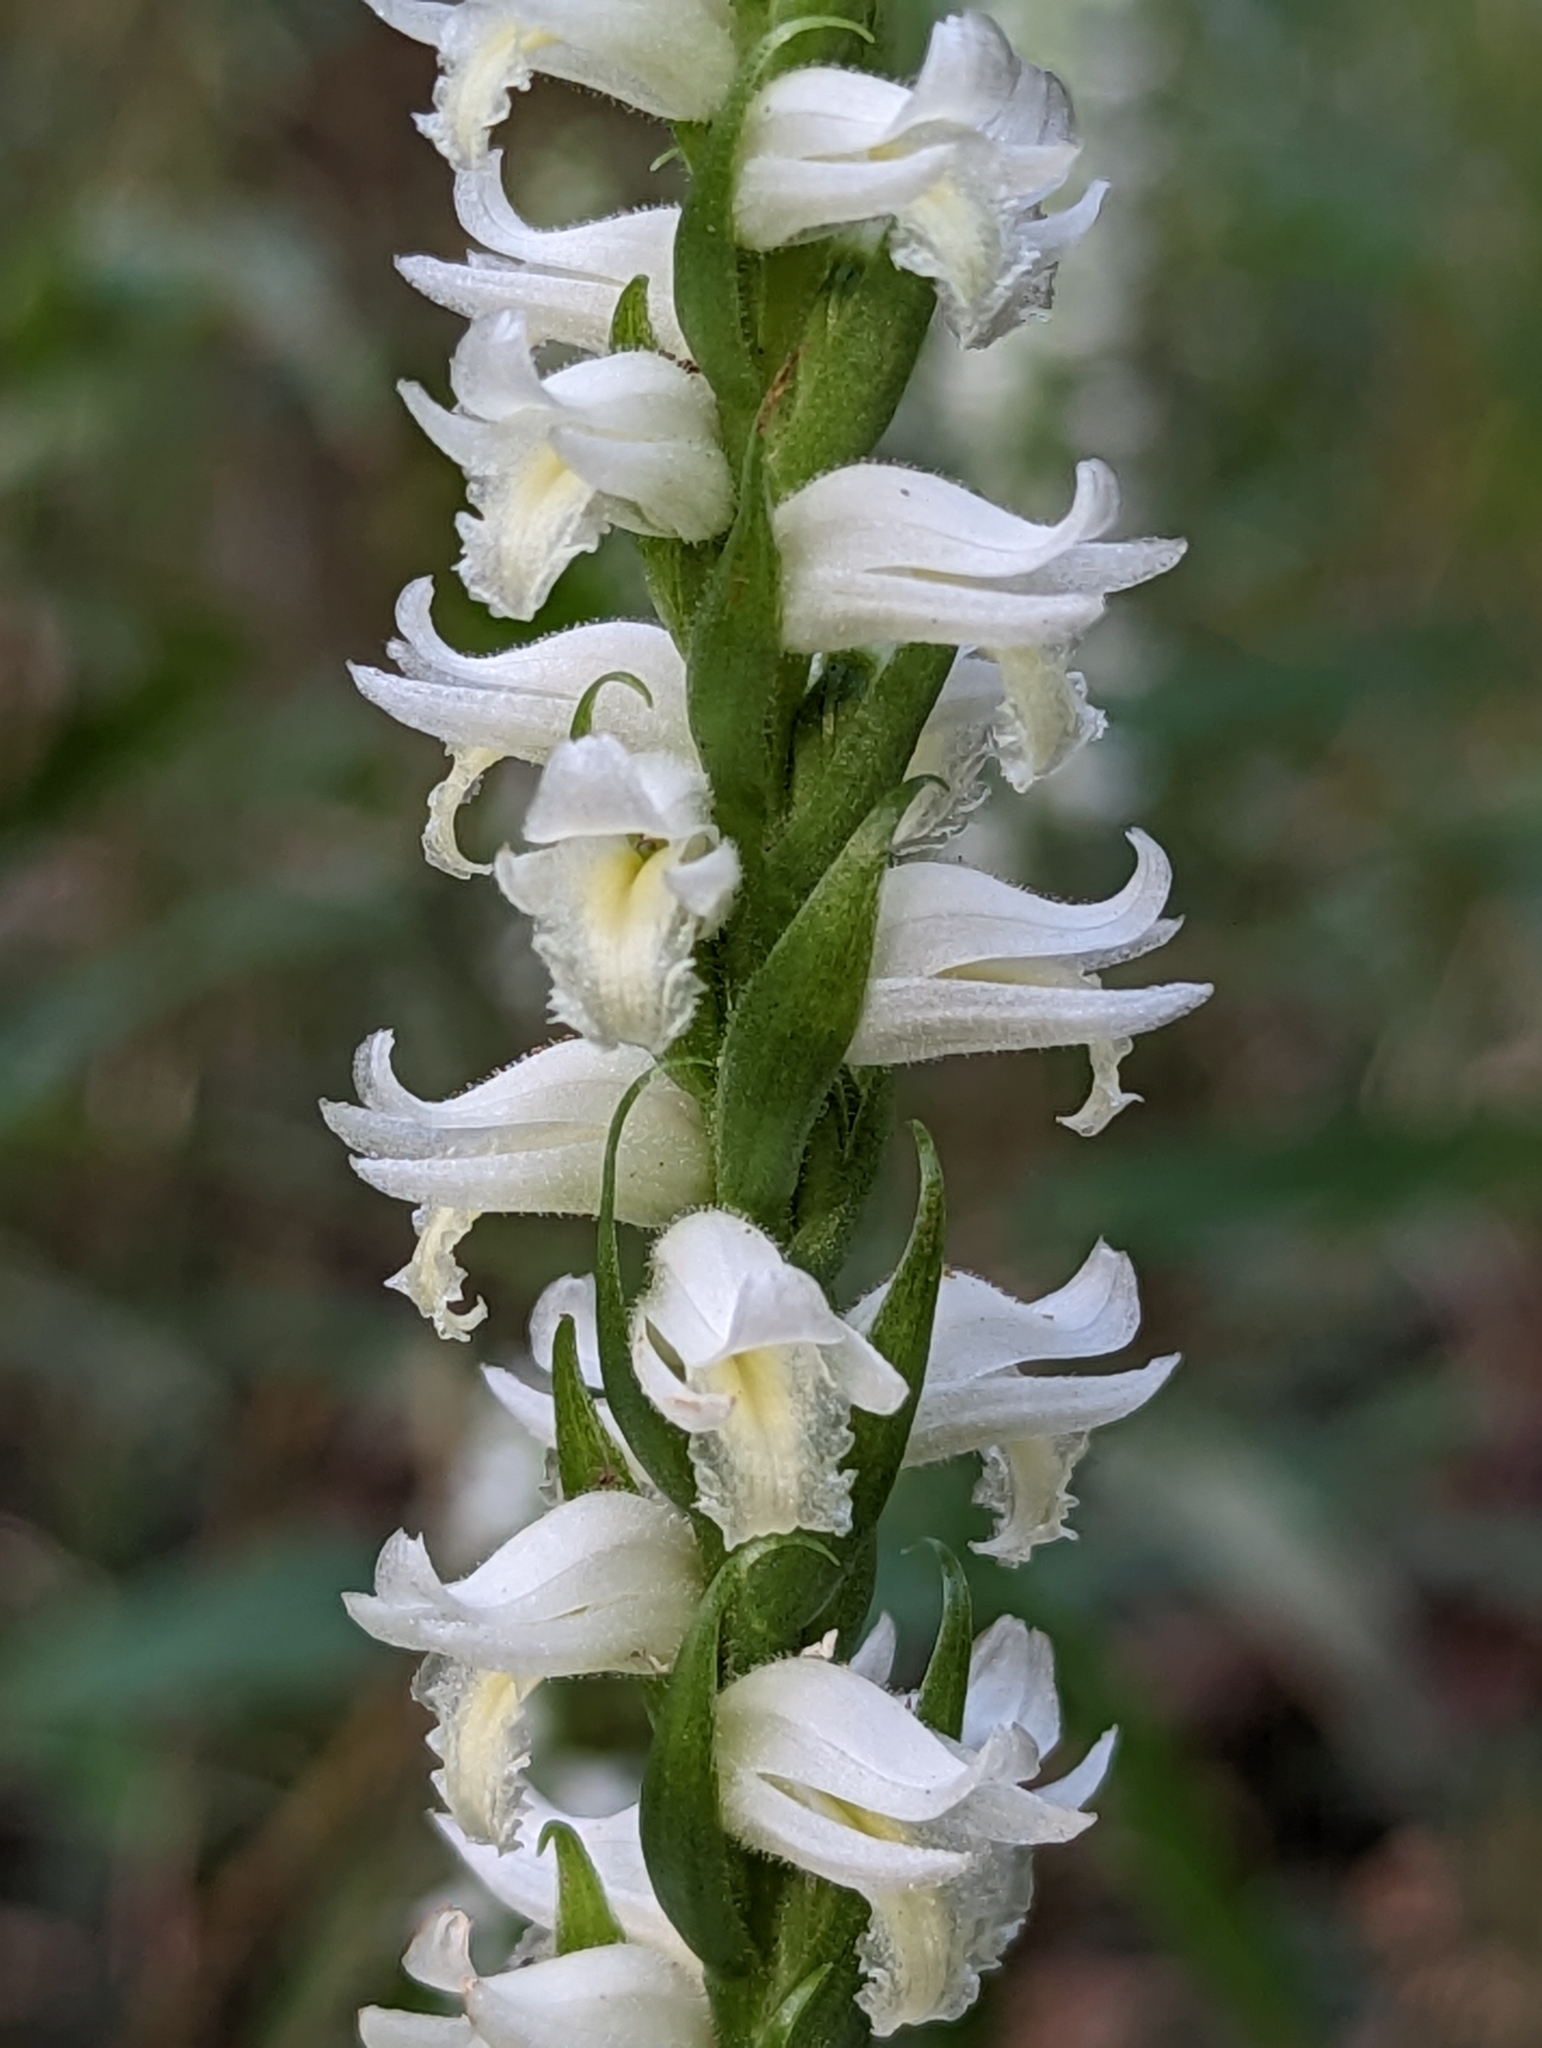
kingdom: Plantae
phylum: Tracheophyta
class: Liliopsida
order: Asparagales
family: Orchidaceae
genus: Spiranthes
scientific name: Spiranthes odorata
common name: Marsh ladies'-tresses
